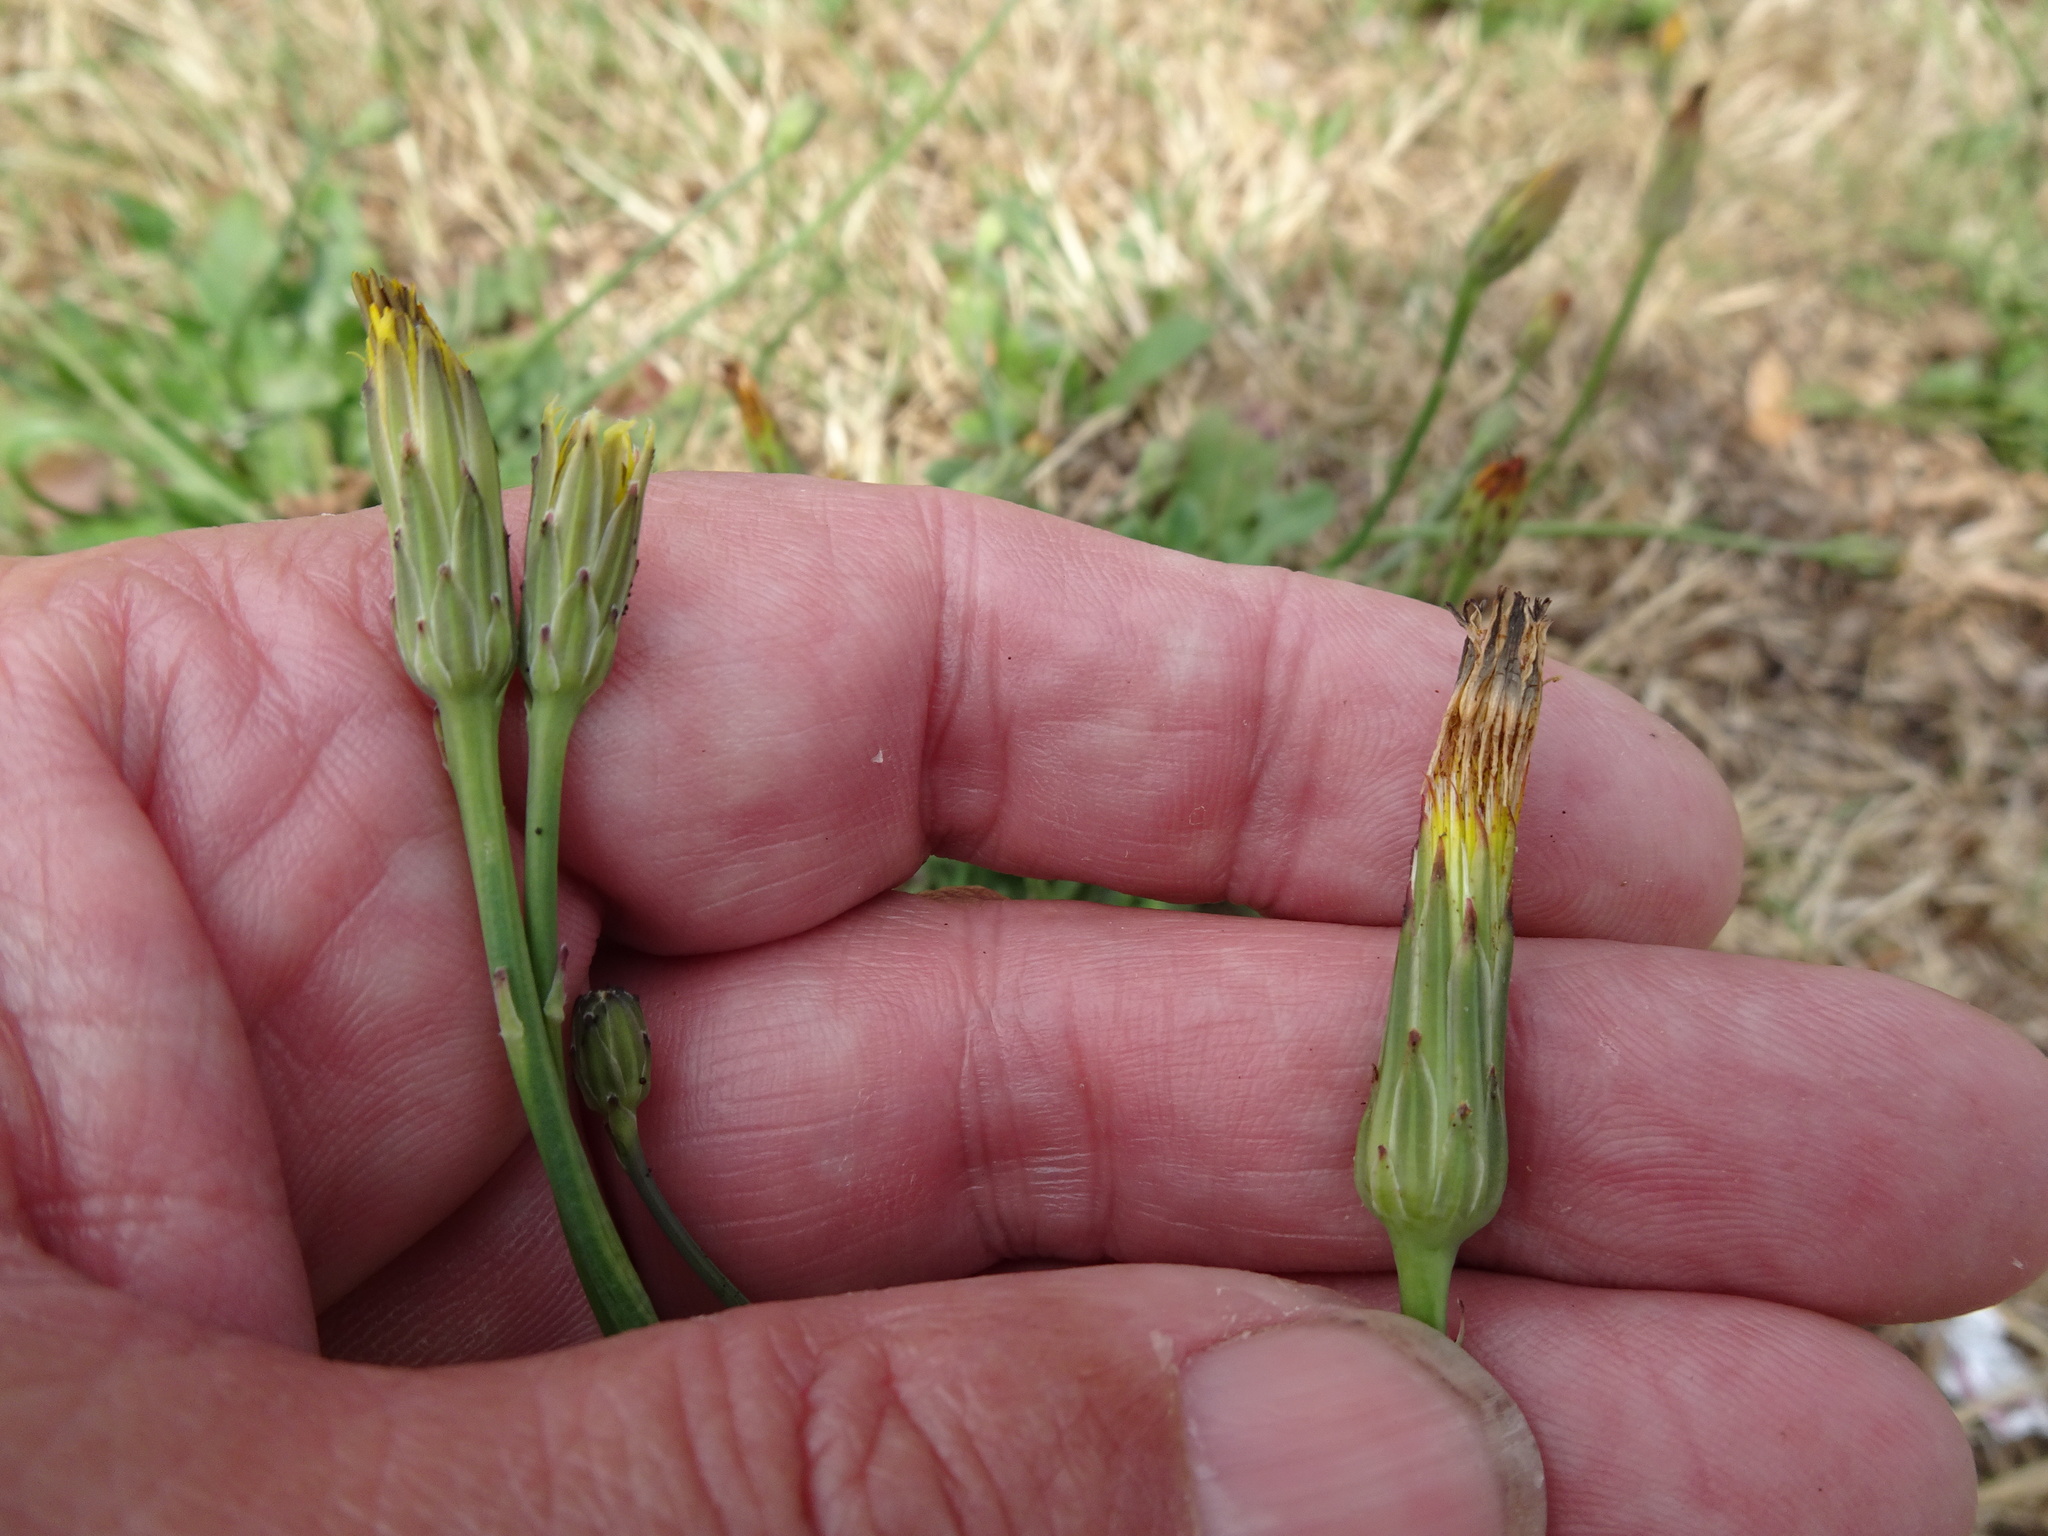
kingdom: Plantae
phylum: Tracheophyta
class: Magnoliopsida
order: Asterales
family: Asteraceae
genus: Hypochaeris
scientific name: Hypochaeris radicata
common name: Flatweed
